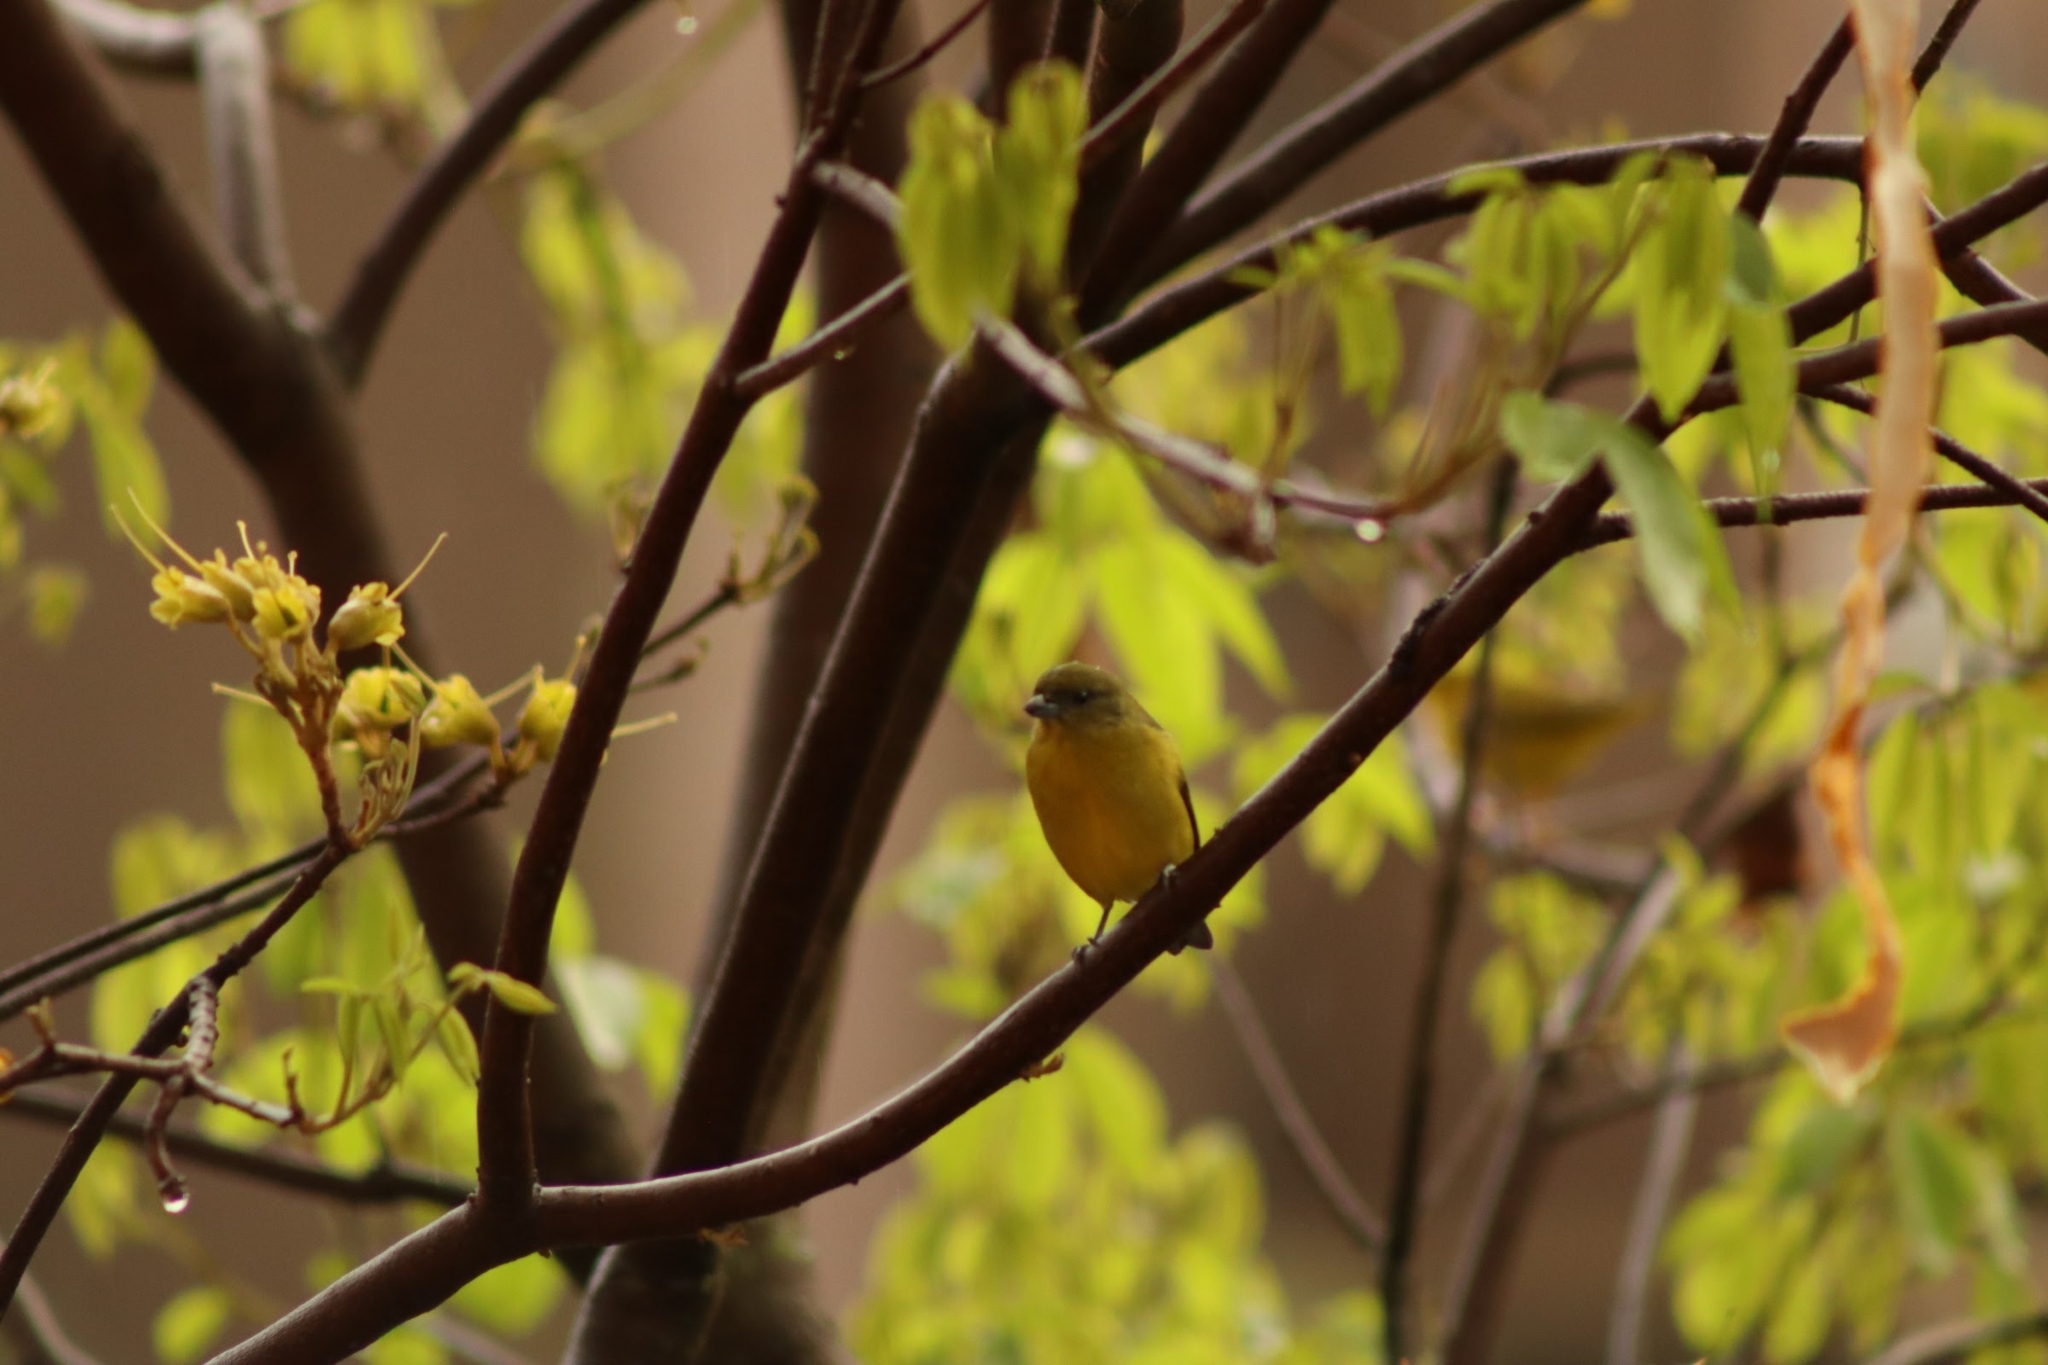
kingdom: Animalia
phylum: Chordata
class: Aves
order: Passeriformes
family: Fringillidae
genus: Euphonia
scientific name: Euphonia laniirostris
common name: Thick-billed euphonia
